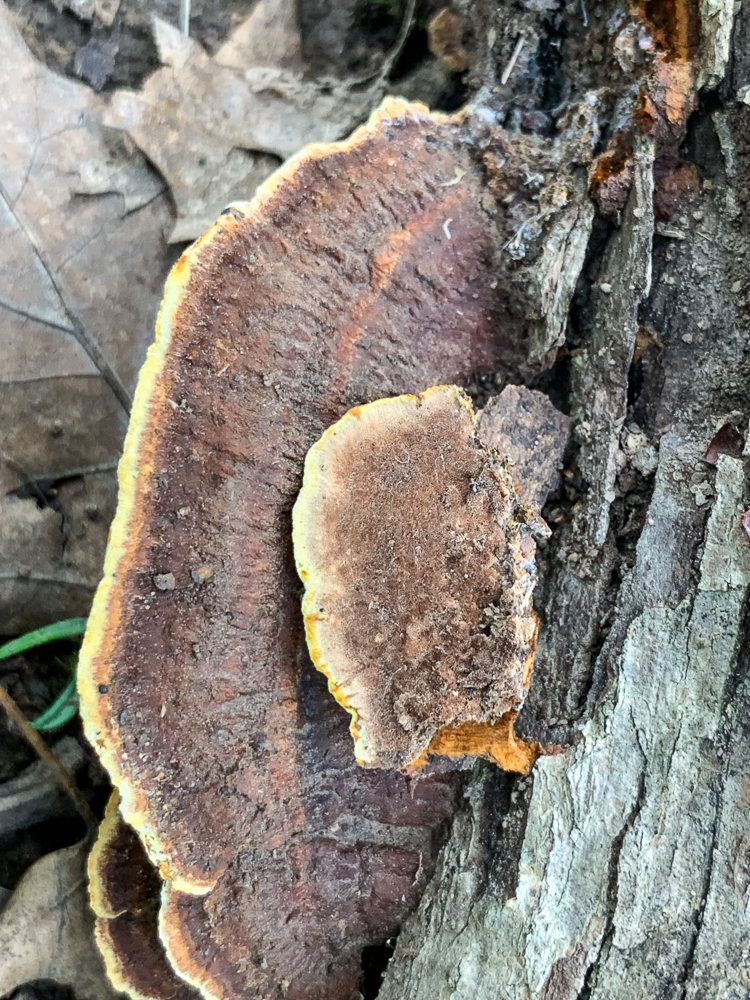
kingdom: Fungi
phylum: Basidiomycota
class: Agaricomycetes
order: Hymenochaetales
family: Hymenochaetaceae
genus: Phellinus
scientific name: Phellinus gilvus
